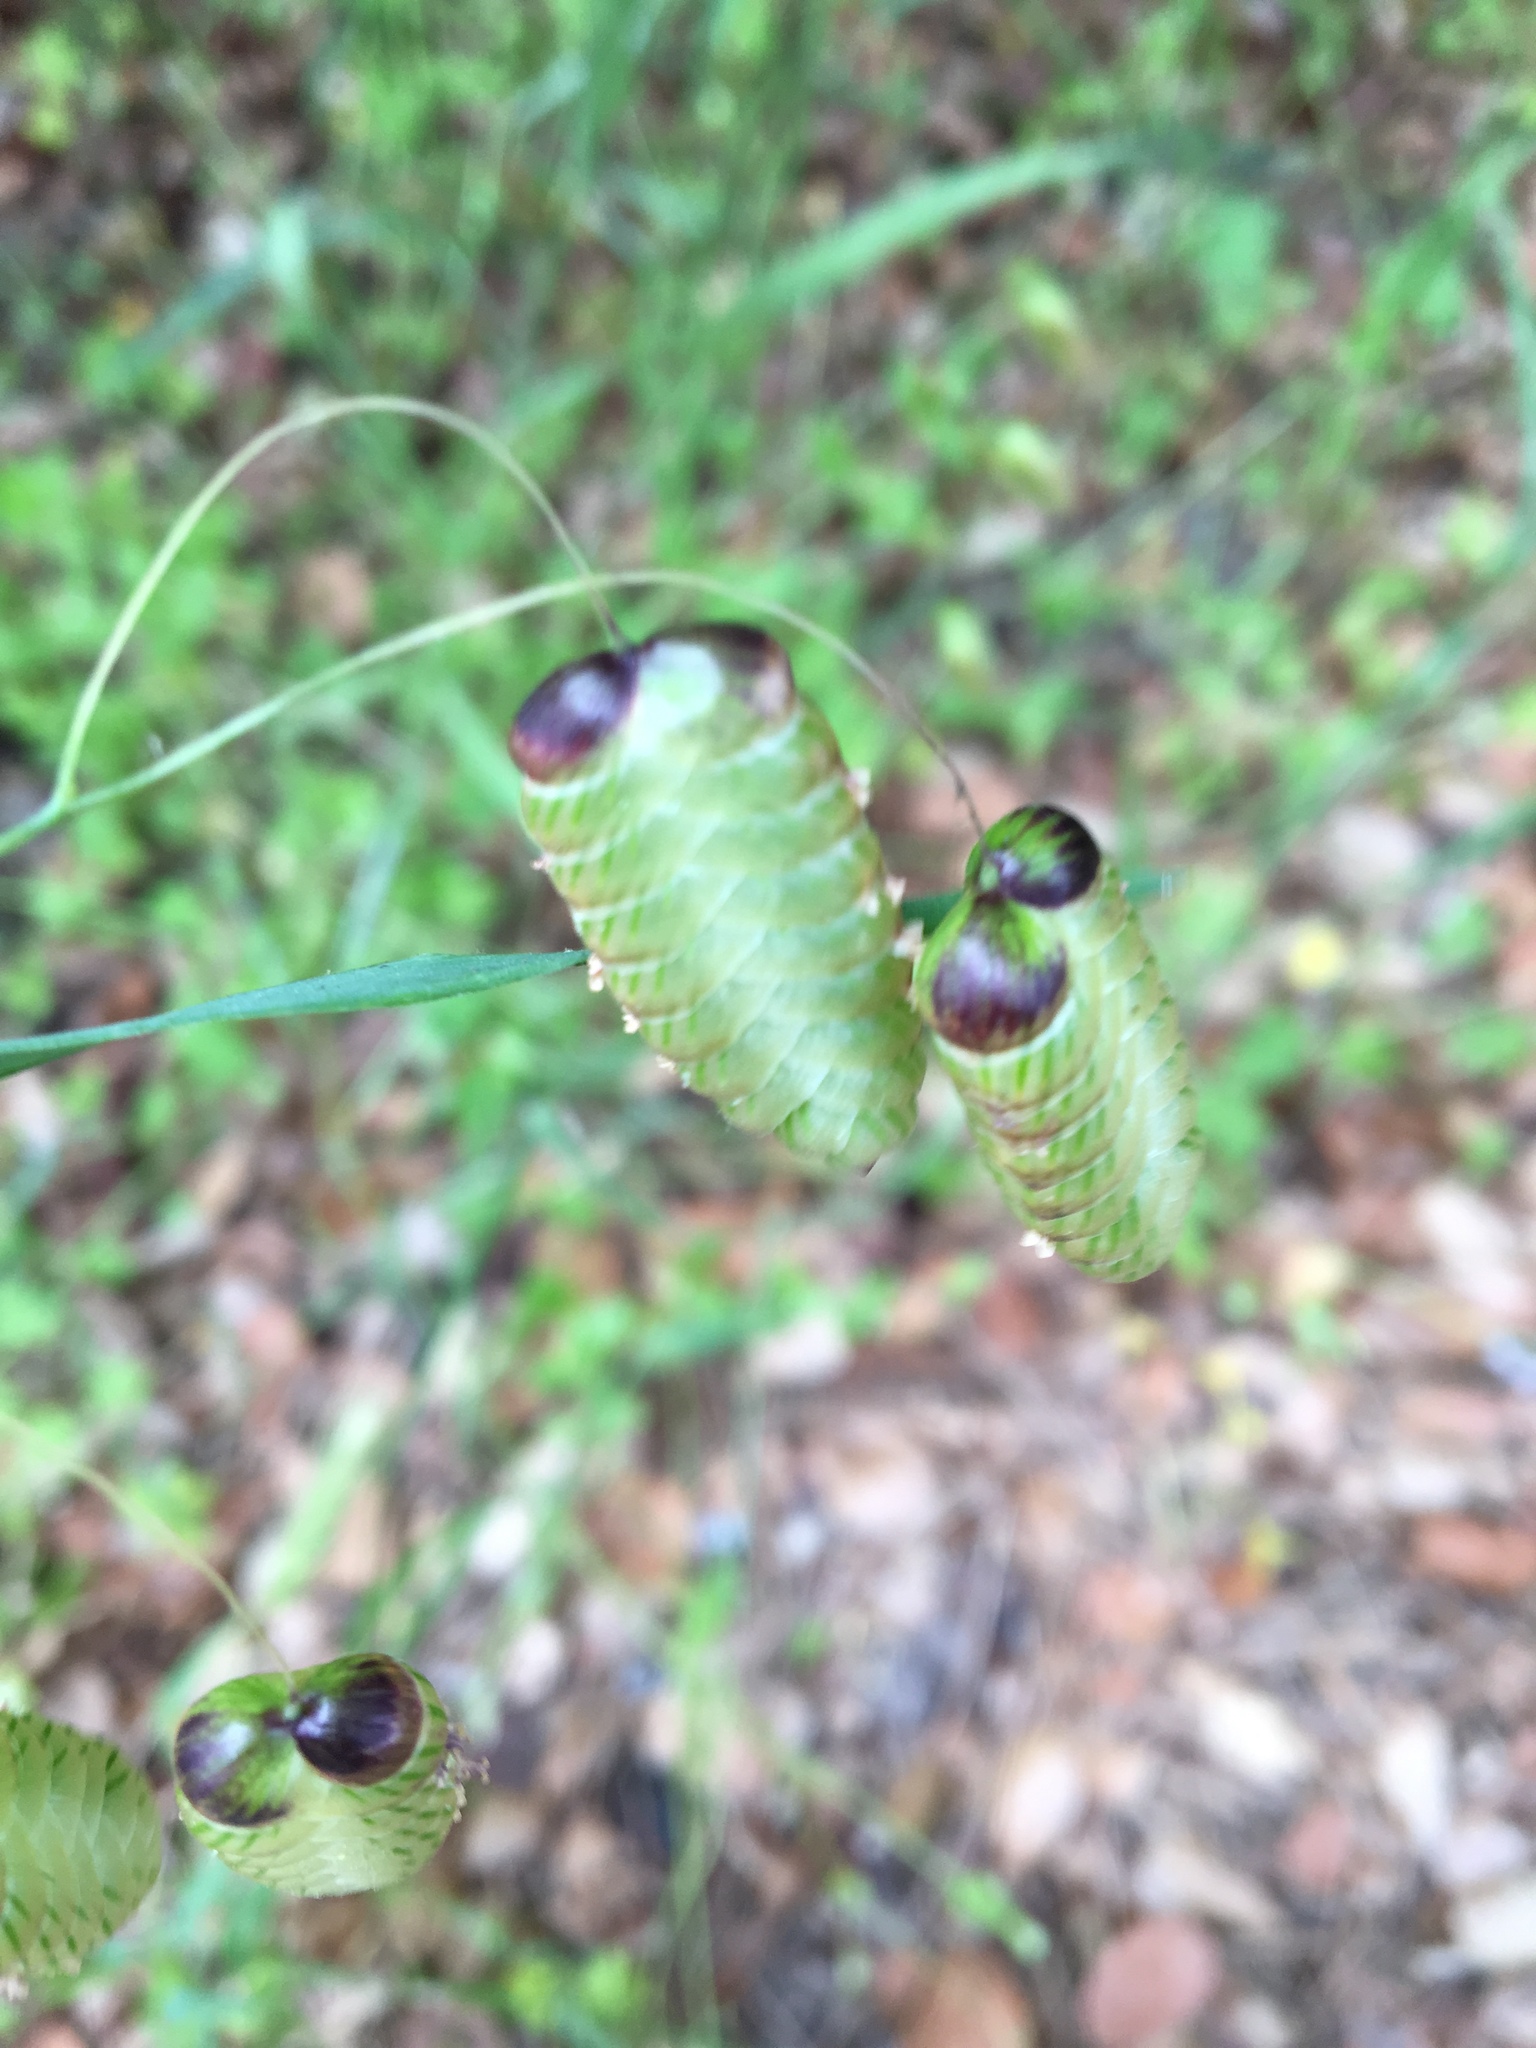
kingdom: Plantae
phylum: Tracheophyta
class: Liliopsida
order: Poales
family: Poaceae
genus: Briza
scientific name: Briza maxima
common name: Big quakinggrass
